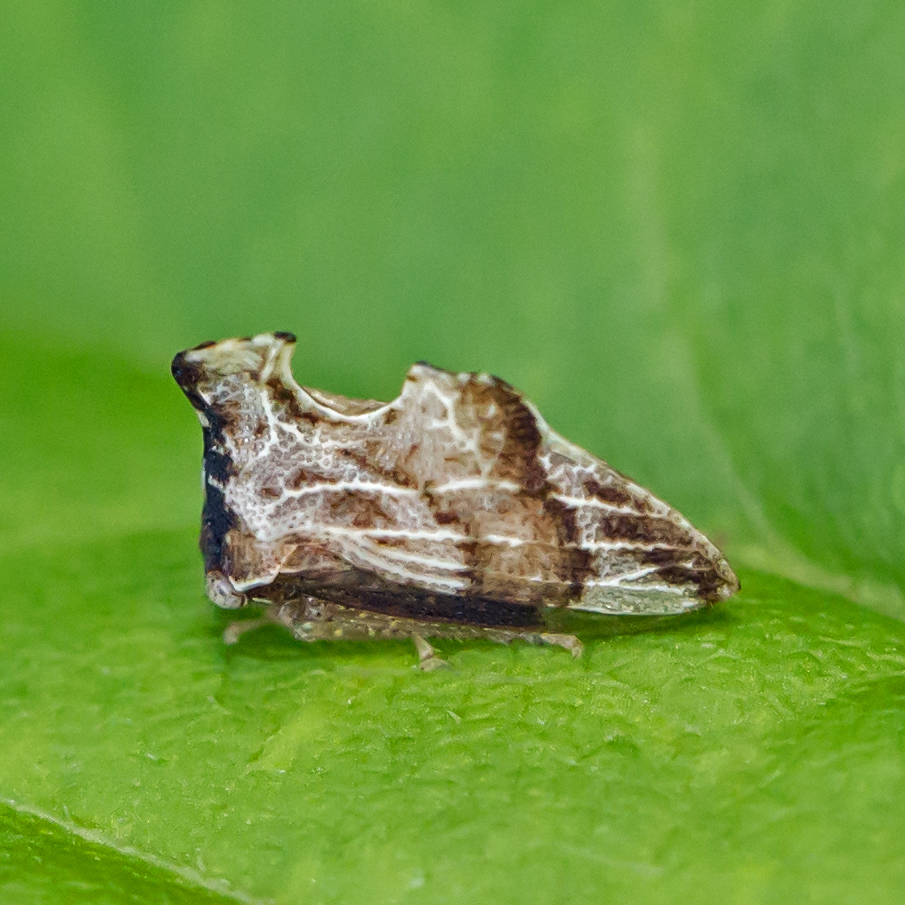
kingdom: Animalia
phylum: Arthropoda
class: Insecta
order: Hemiptera
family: Membracidae
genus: Entylia
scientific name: Entylia carinata
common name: Keeled treehopper
